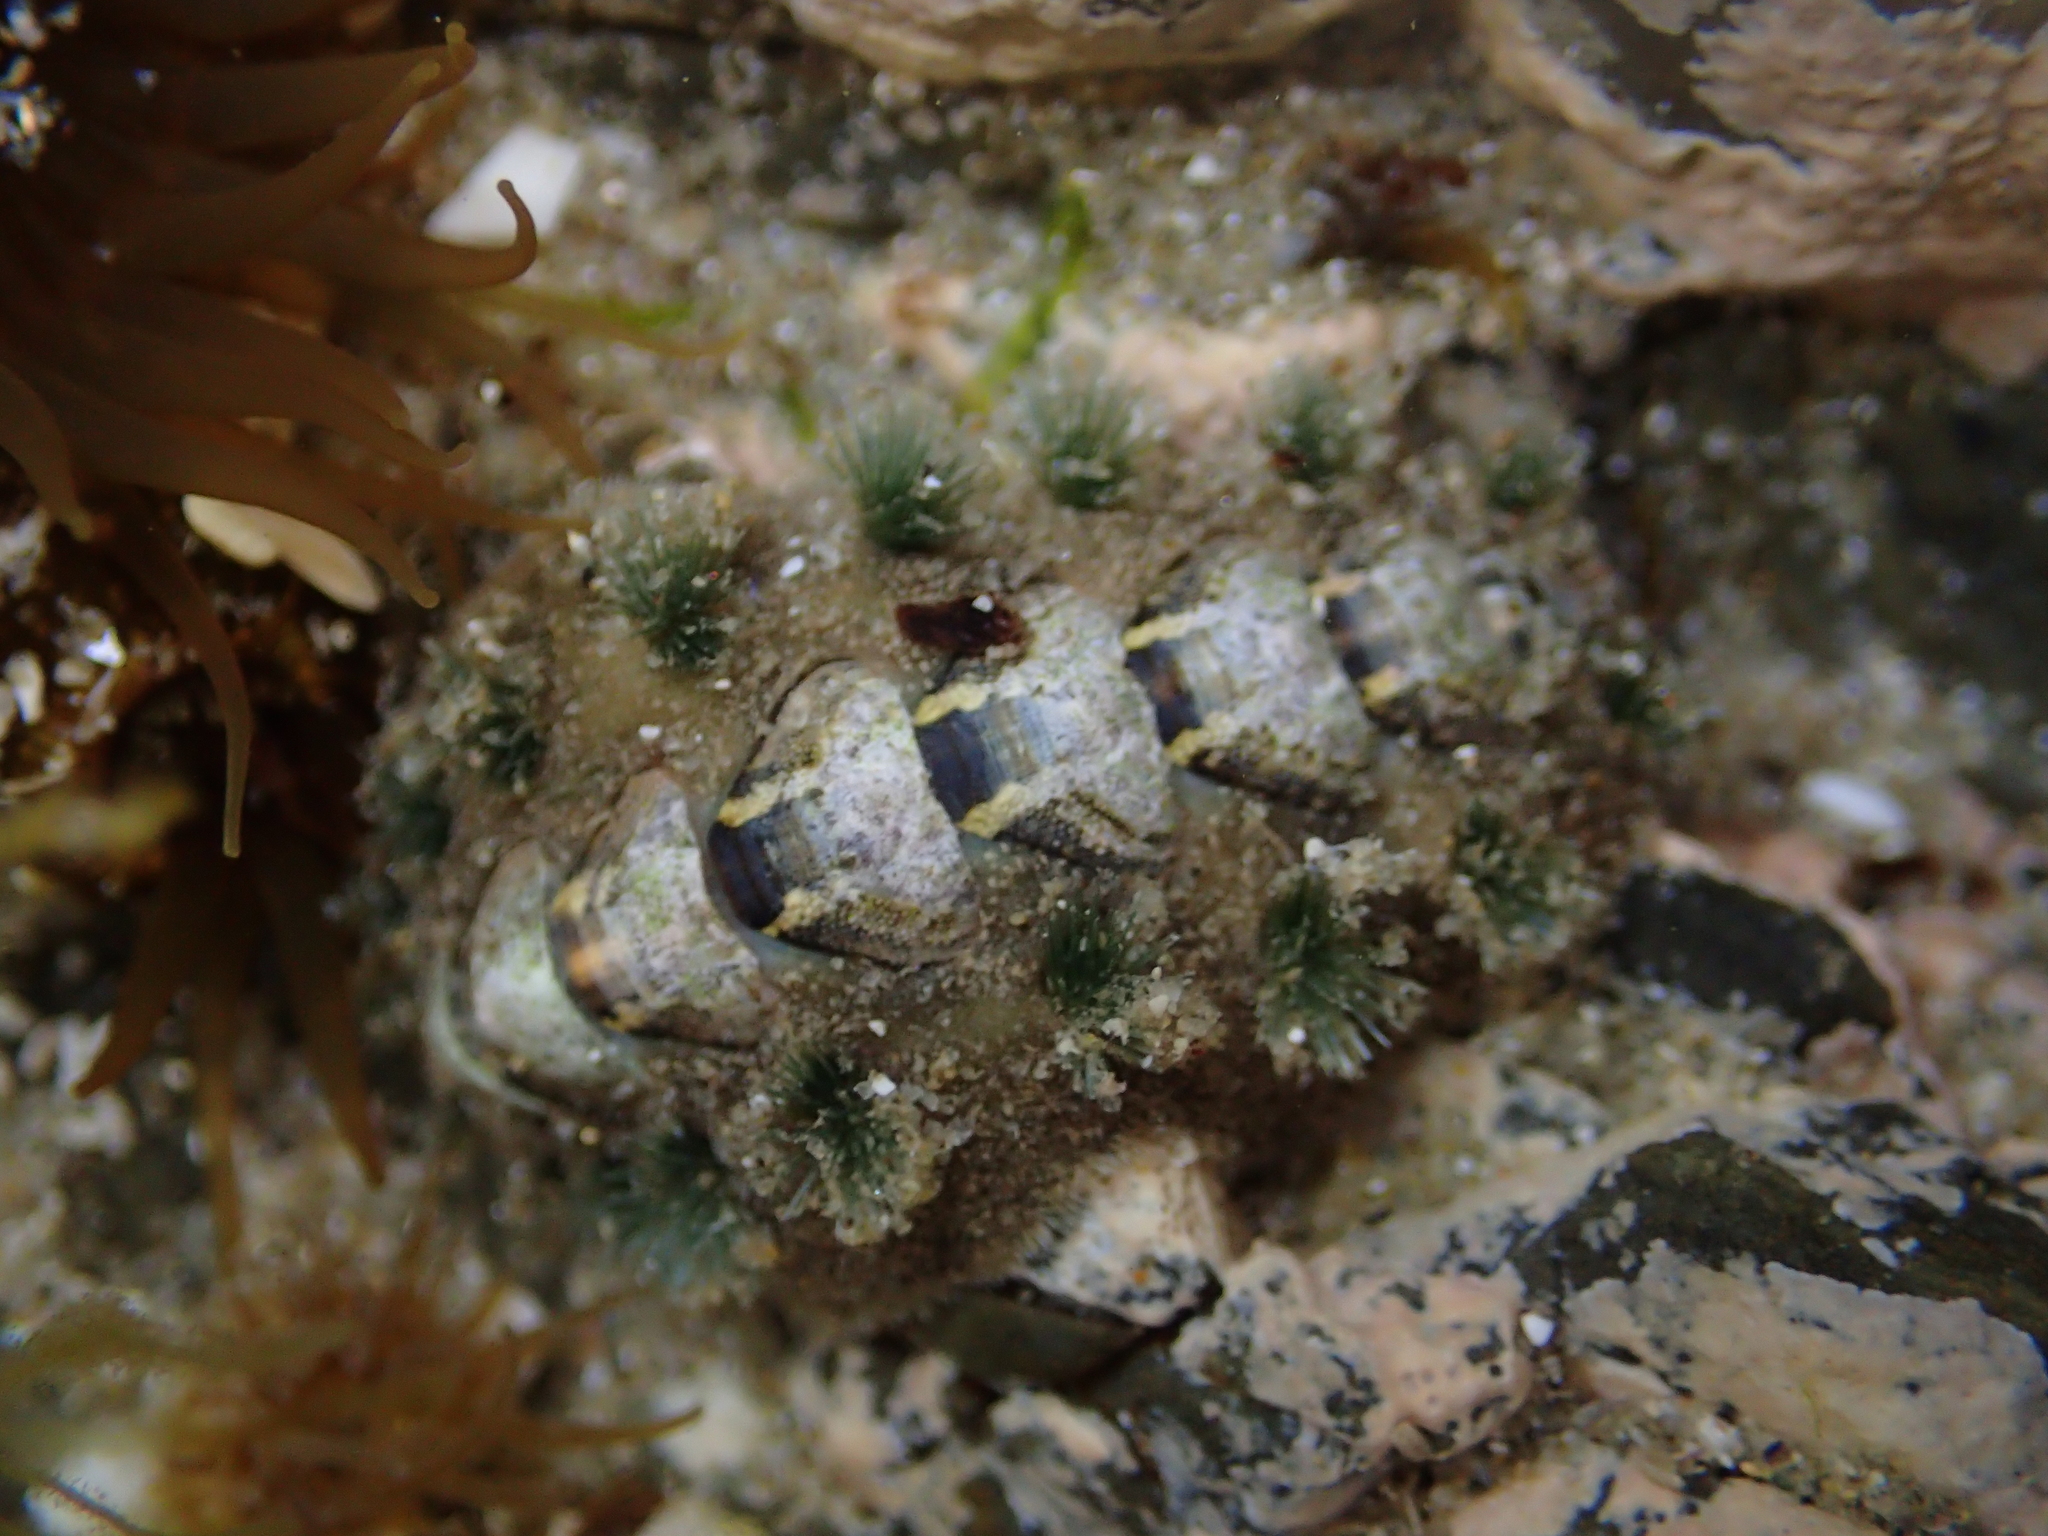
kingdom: Animalia
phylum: Mollusca
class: Polyplacophora
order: Chitonida
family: Acanthochitonidae
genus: Acanthochitona
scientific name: Acanthochitona zelandica
